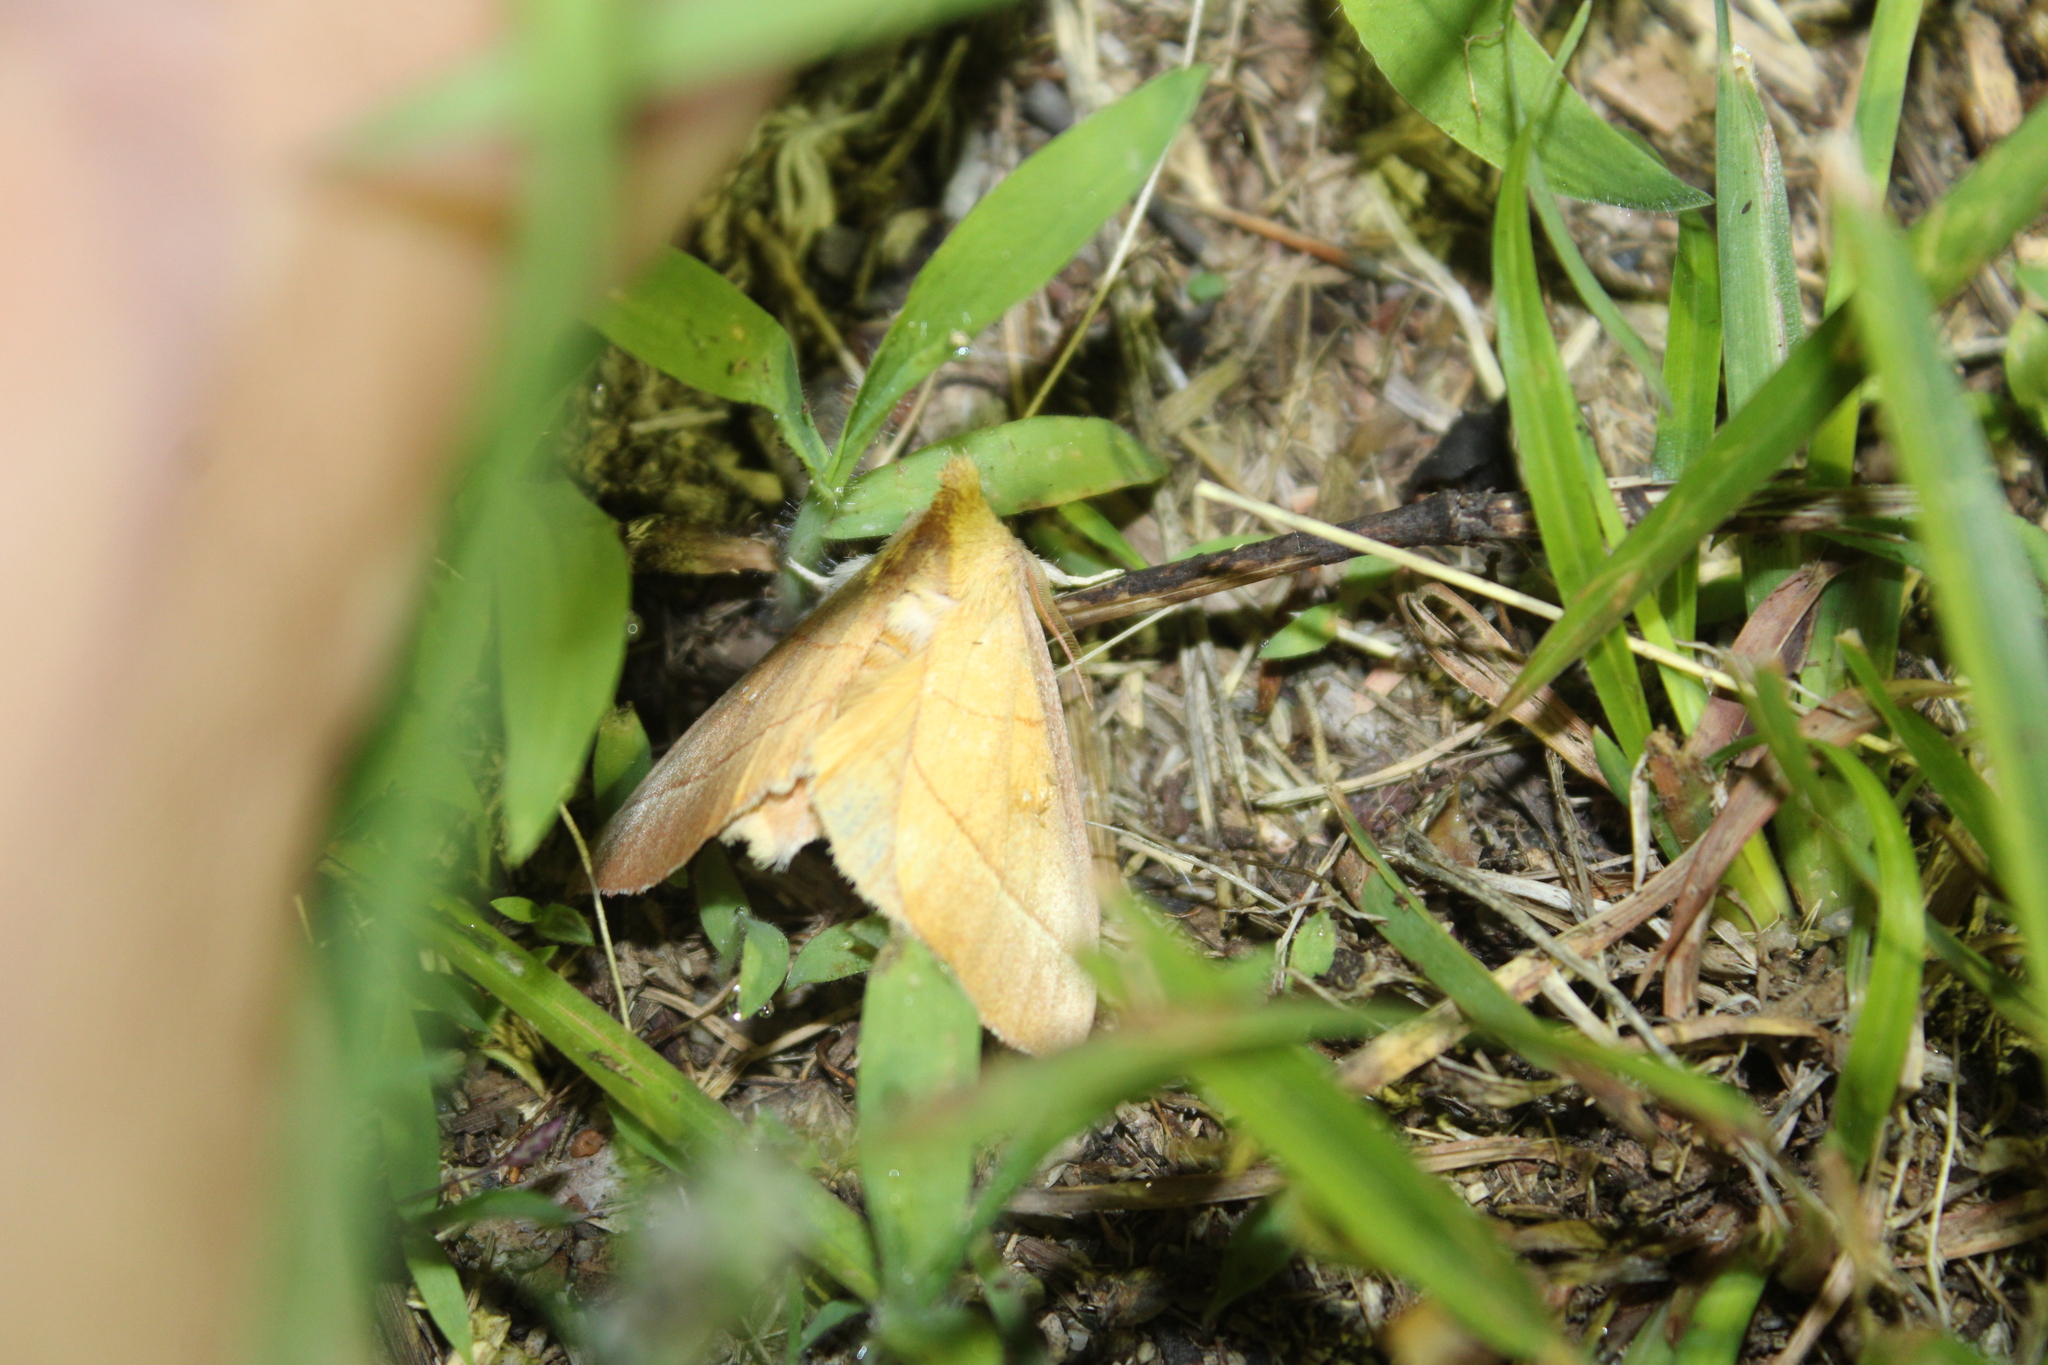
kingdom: Animalia
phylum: Arthropoda
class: Insecta
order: Lepidoptera
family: Notodontidae
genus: Nadata
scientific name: Nadata gibbosa
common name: White-dotted prominent
